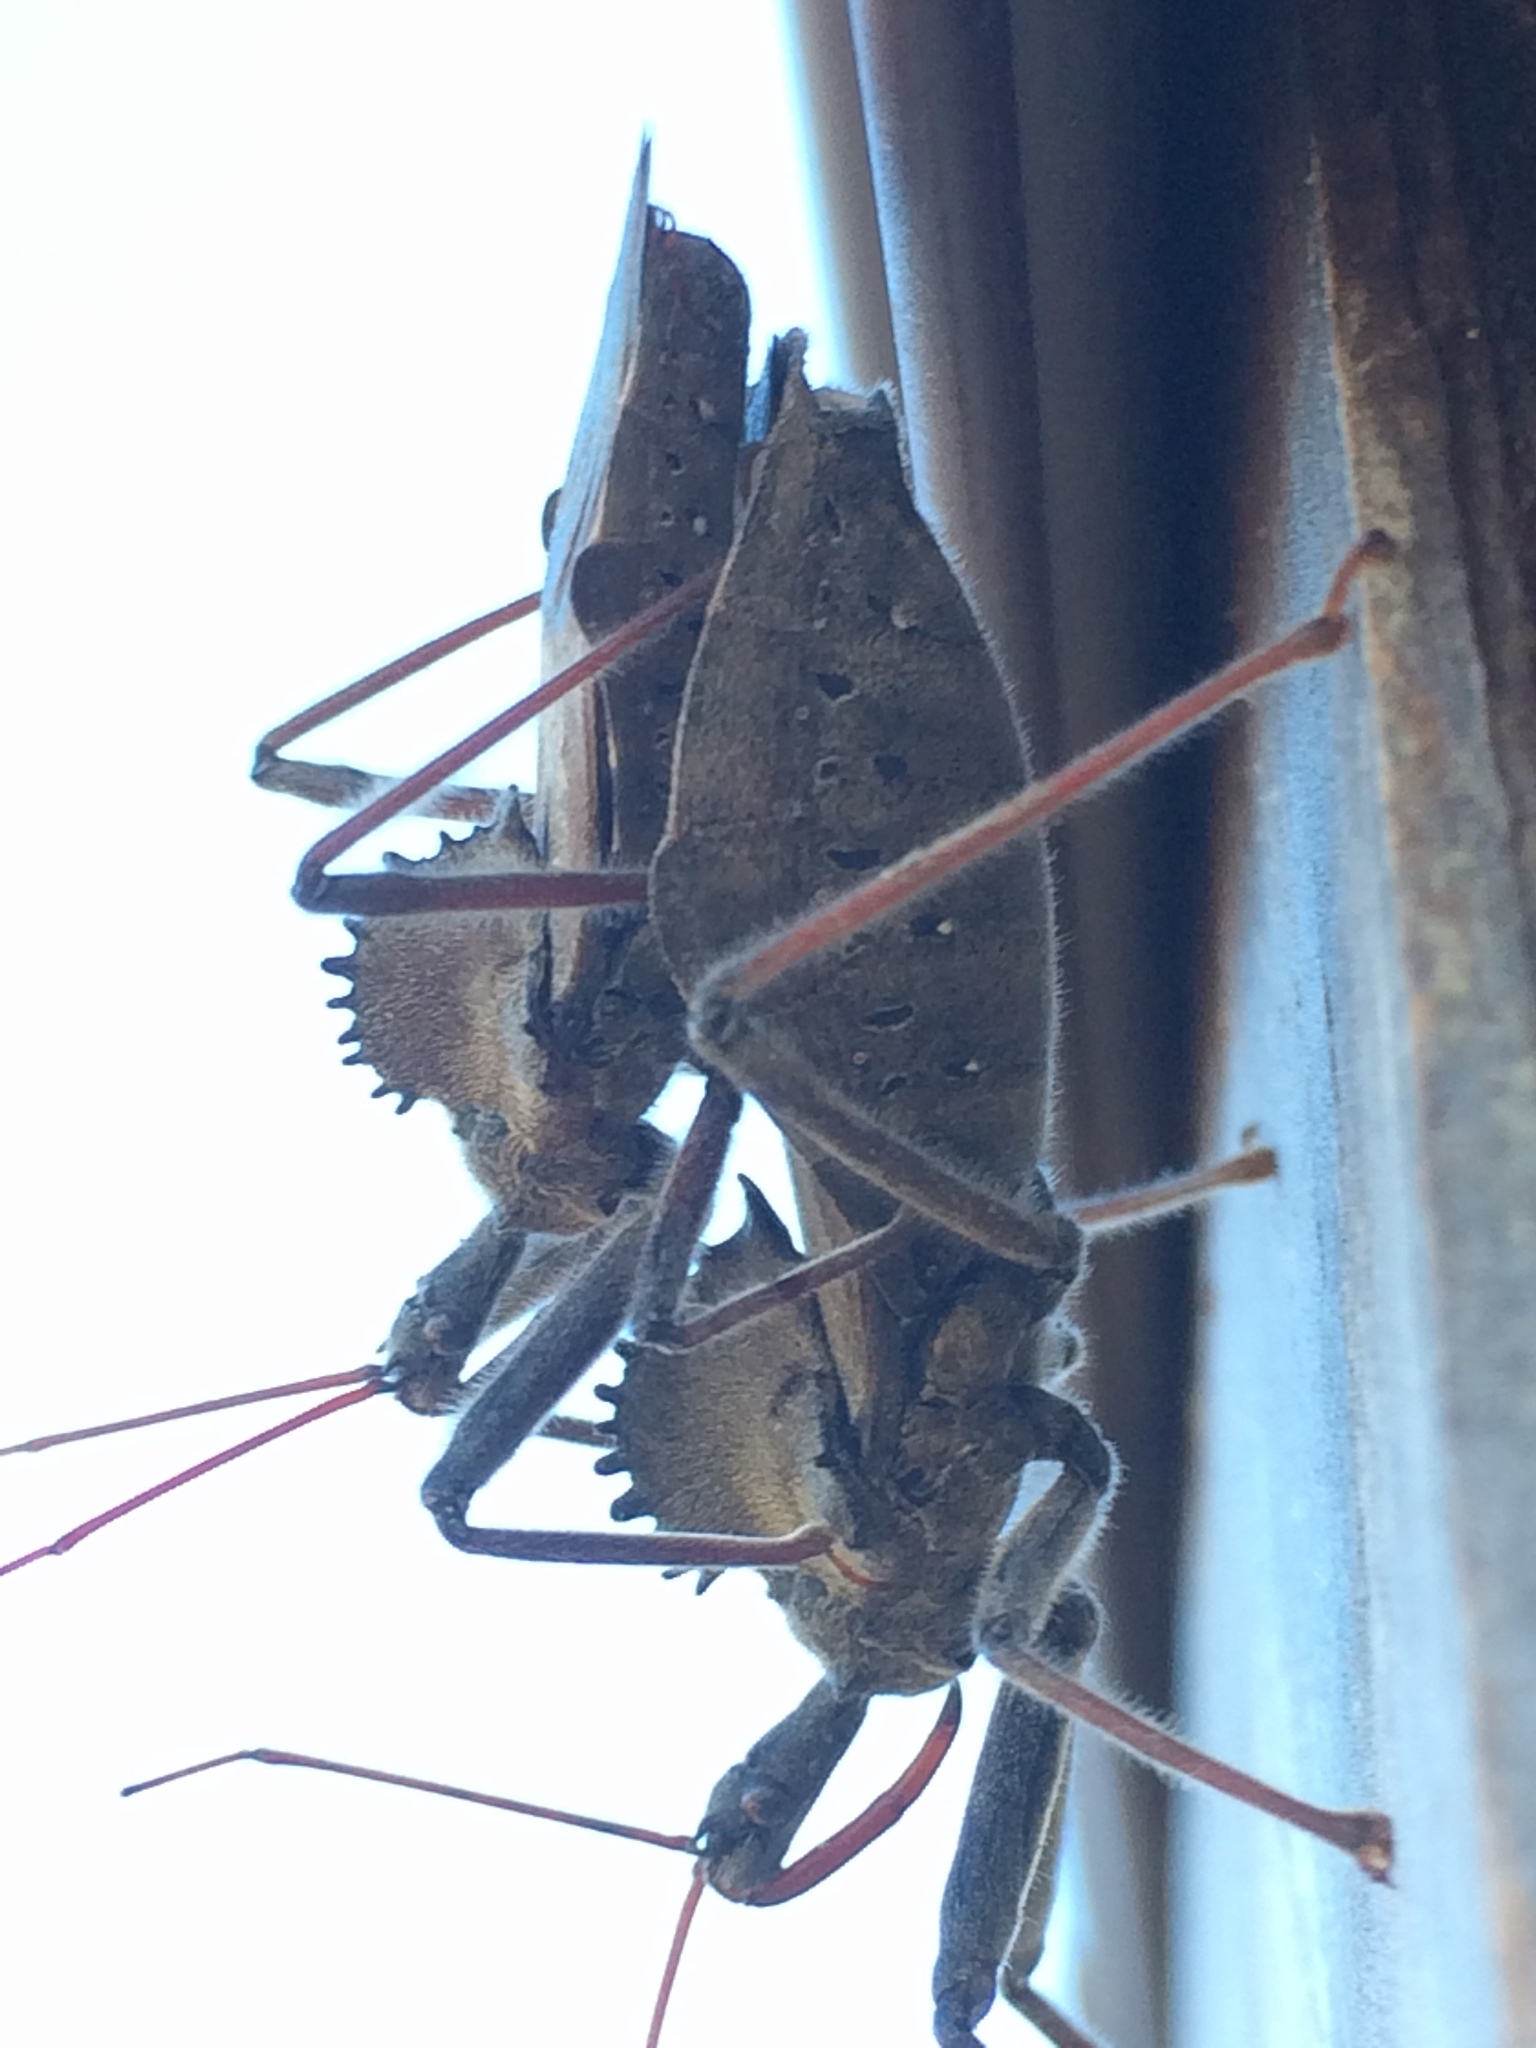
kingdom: Animalia
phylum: Arthropoda
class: Insecta
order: Hemiptera
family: Reduviidae
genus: Arilus
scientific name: Arilus cristatus
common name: North american wheel bug
